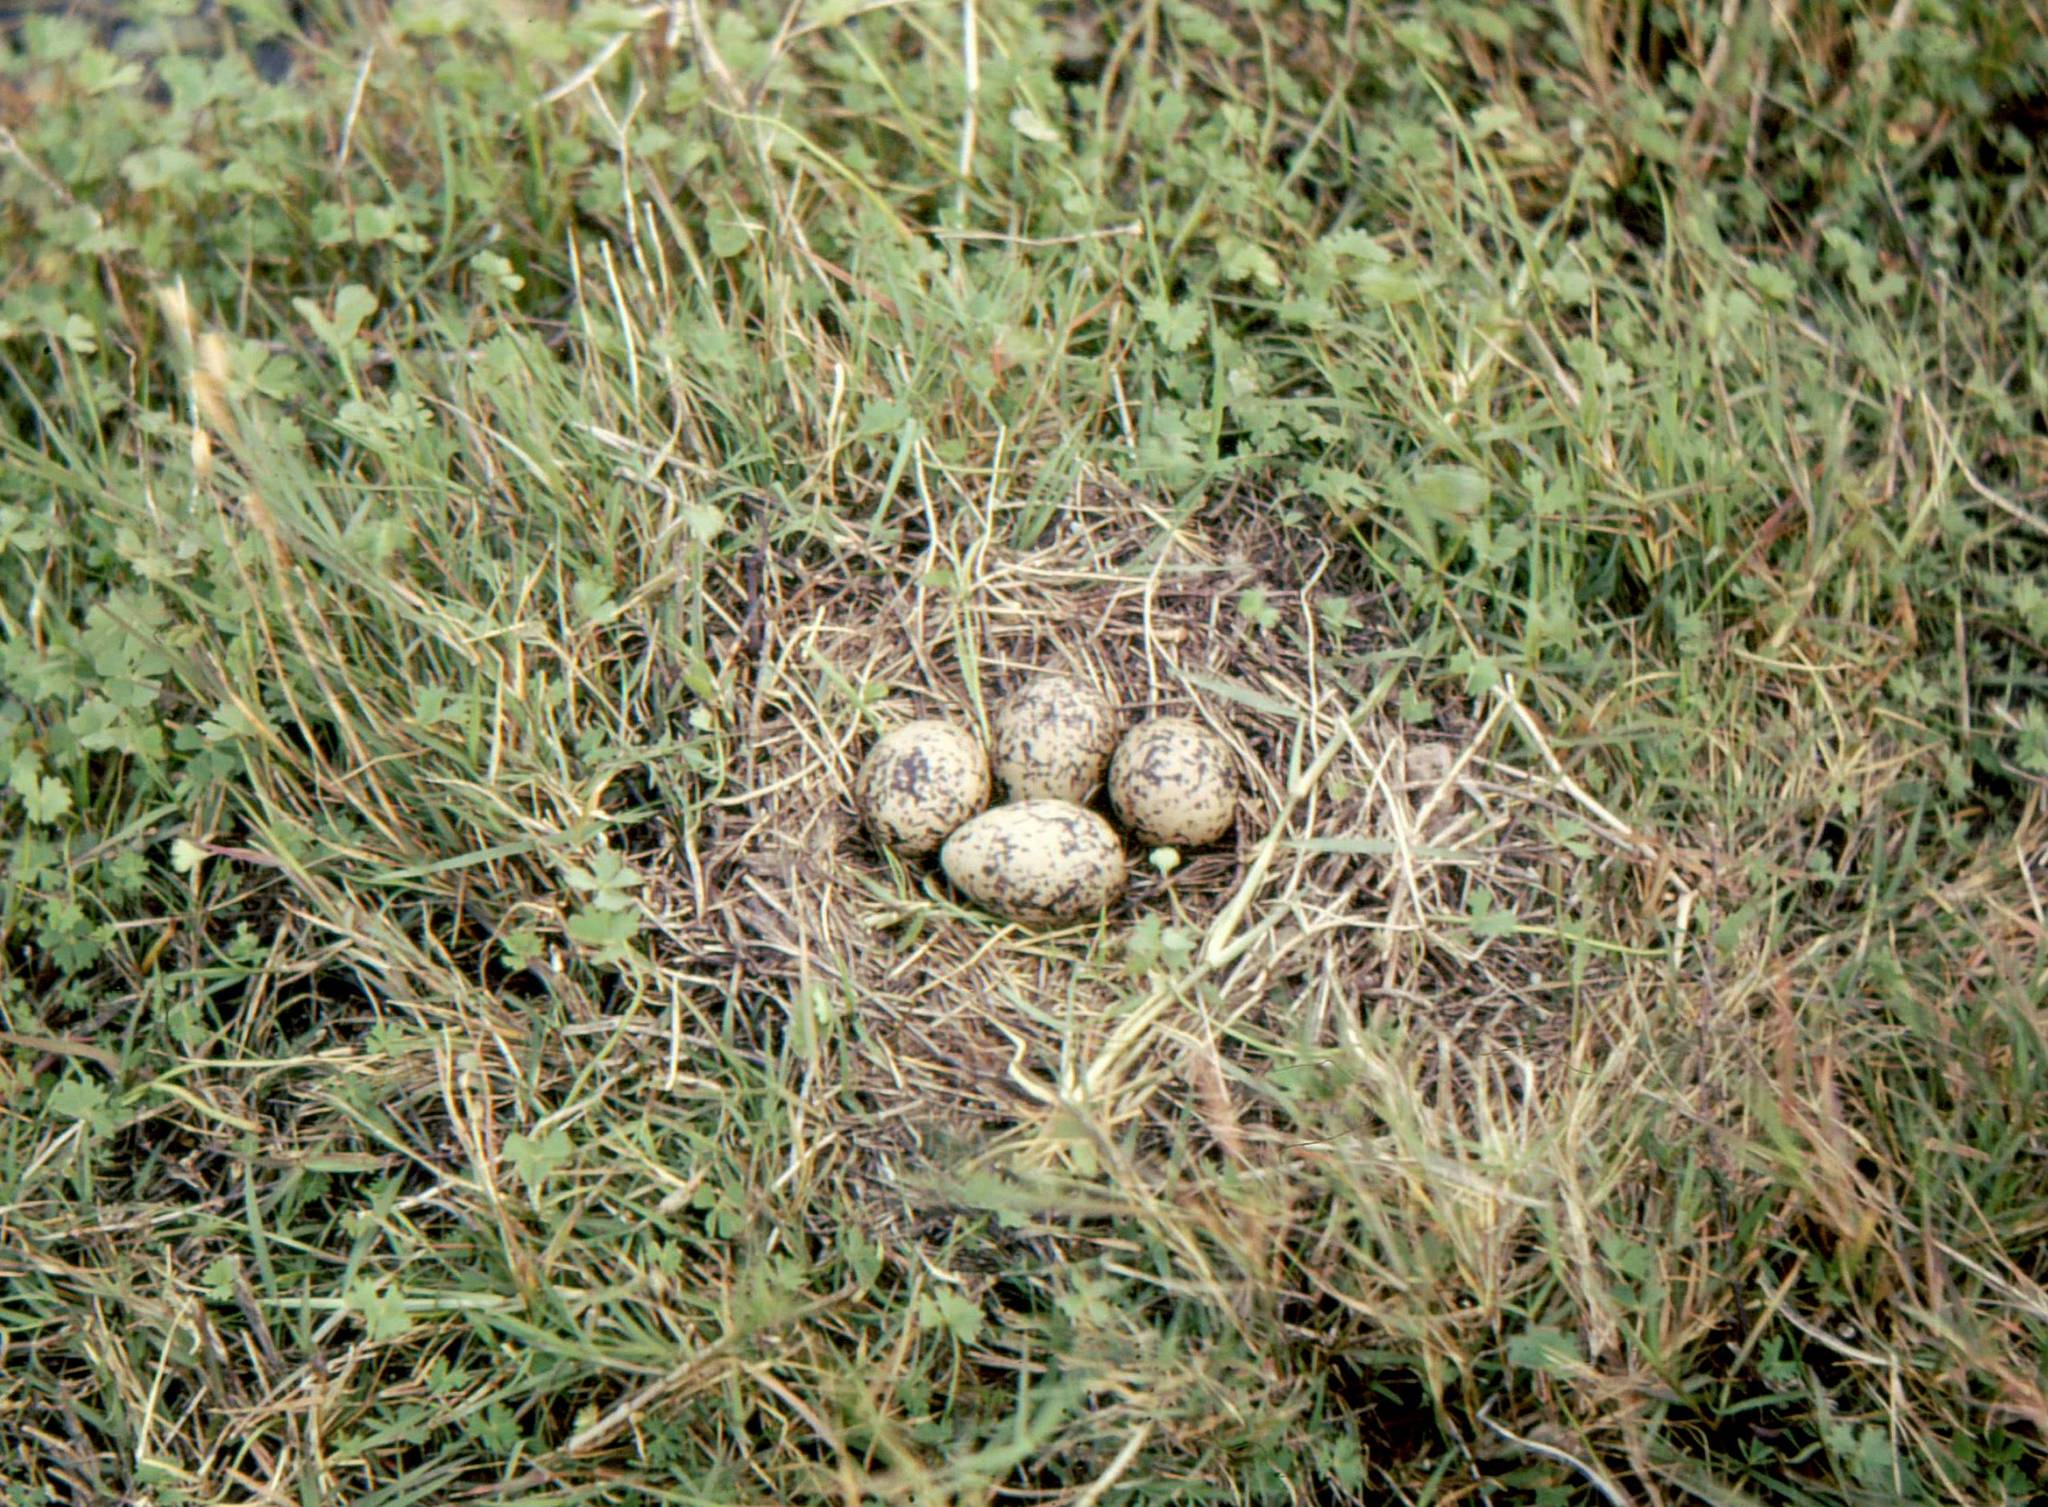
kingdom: Animalia
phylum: Chordata
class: Aves
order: Charadriiformes
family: Recurvirostridae
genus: Himantopus
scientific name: Himantopus himantopus
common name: Black-winged stilt
